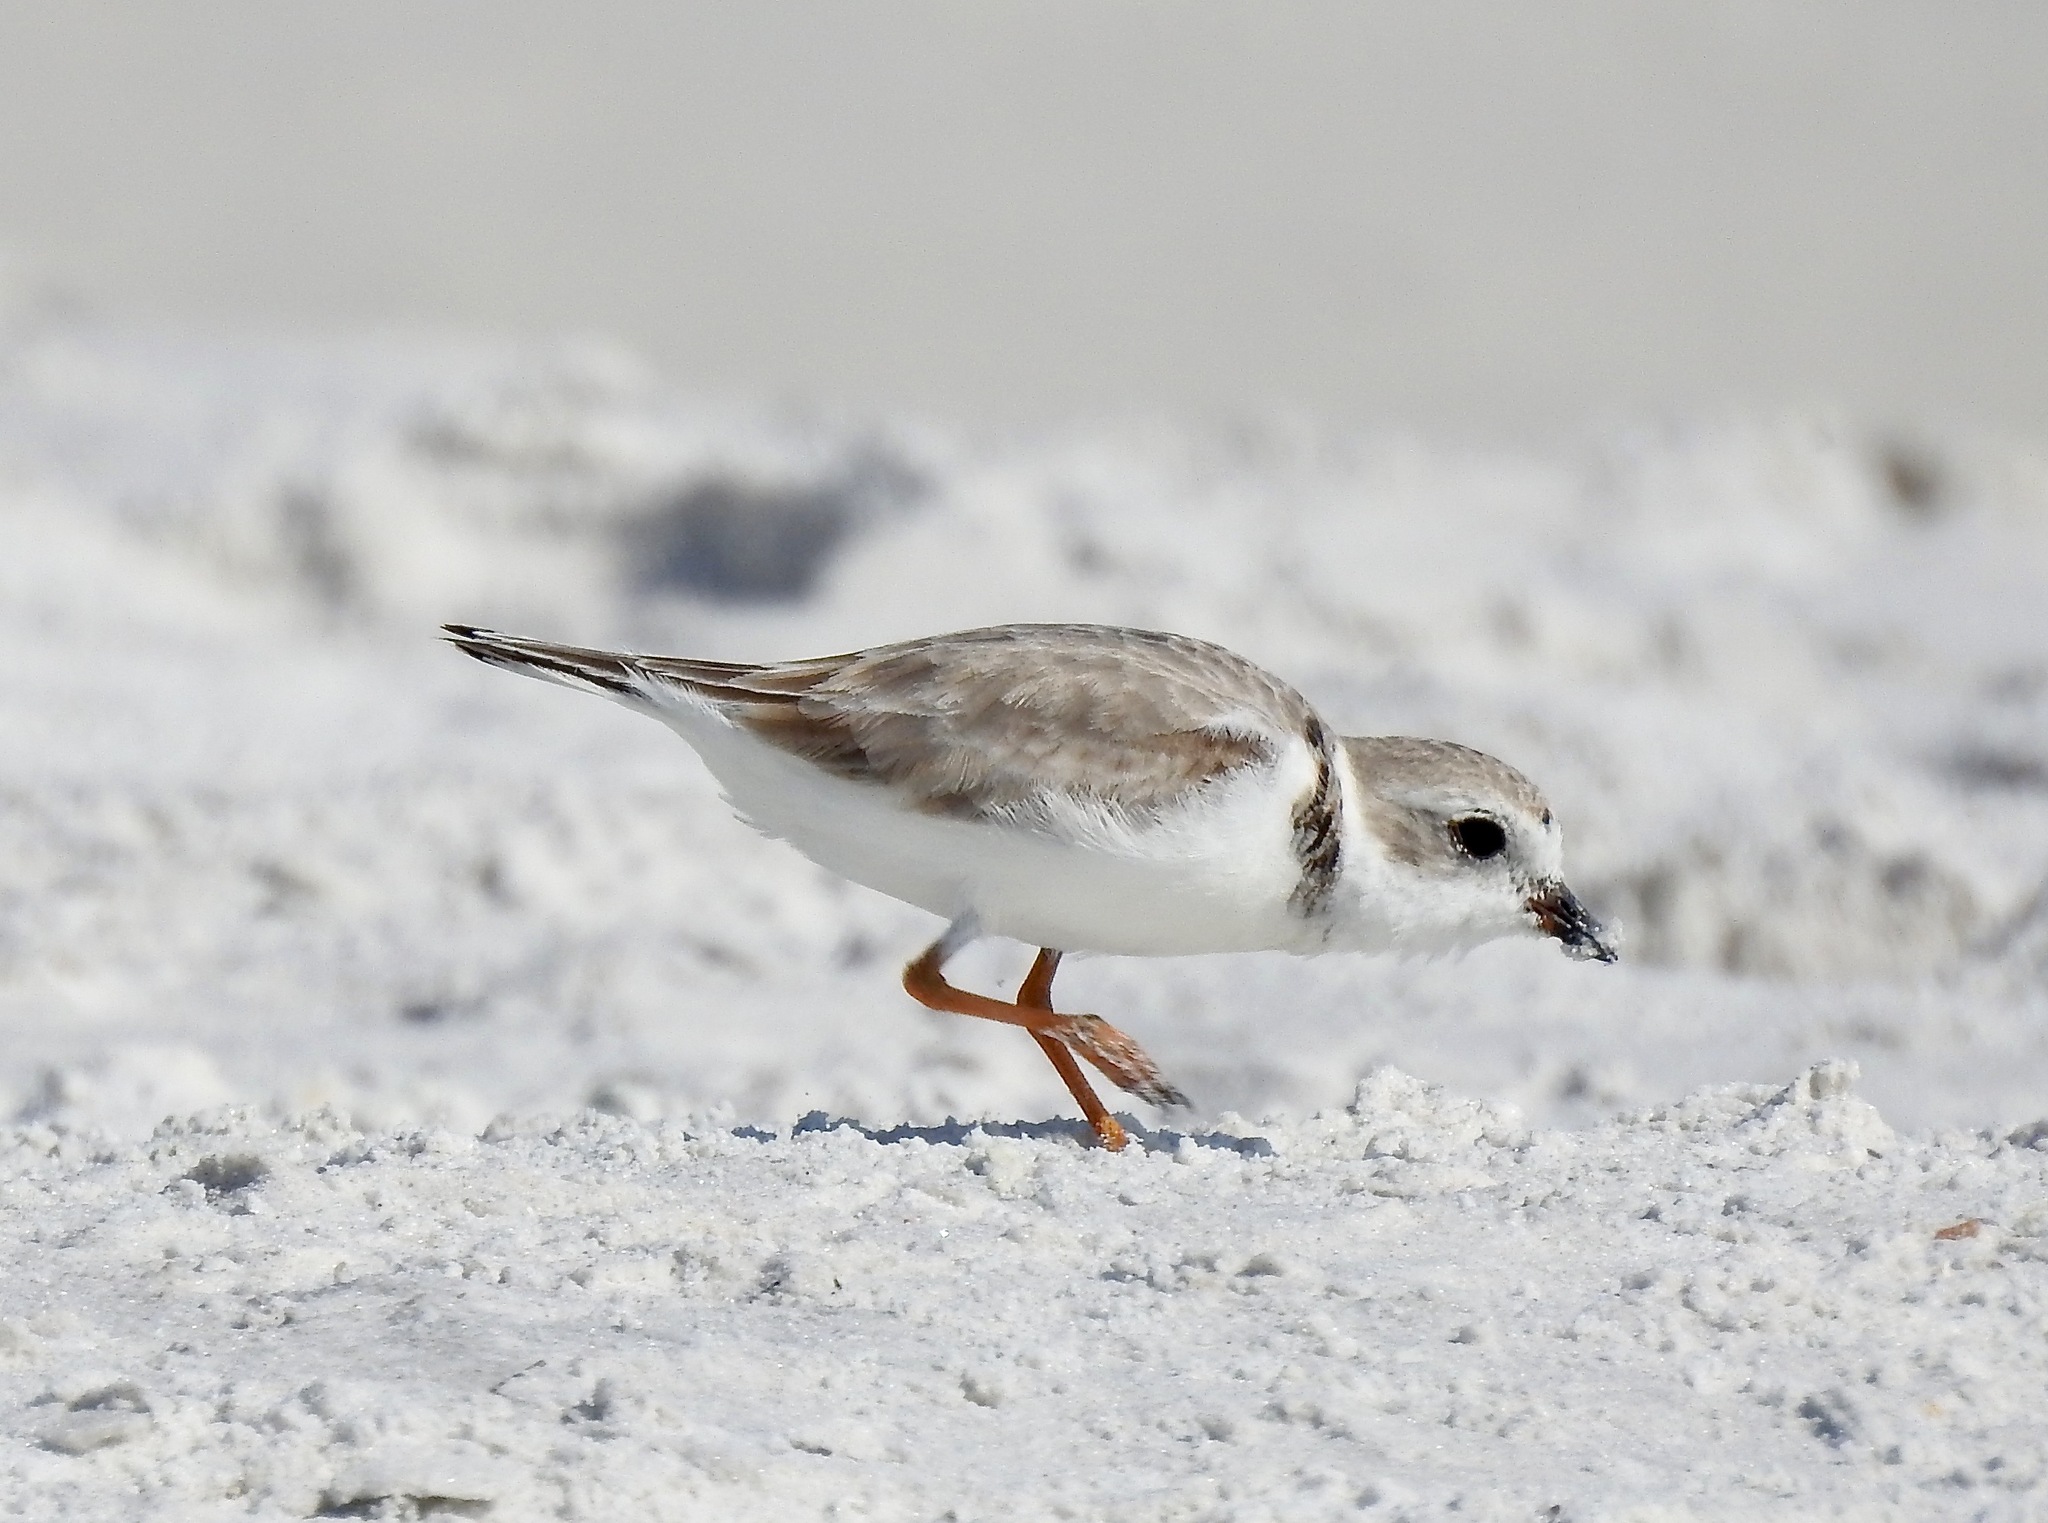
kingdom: Animalia
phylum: Chordata
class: Aves
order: Charadriiformes
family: Charadriidae
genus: Charadrius
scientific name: Charadrius melodus
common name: Piping plover
